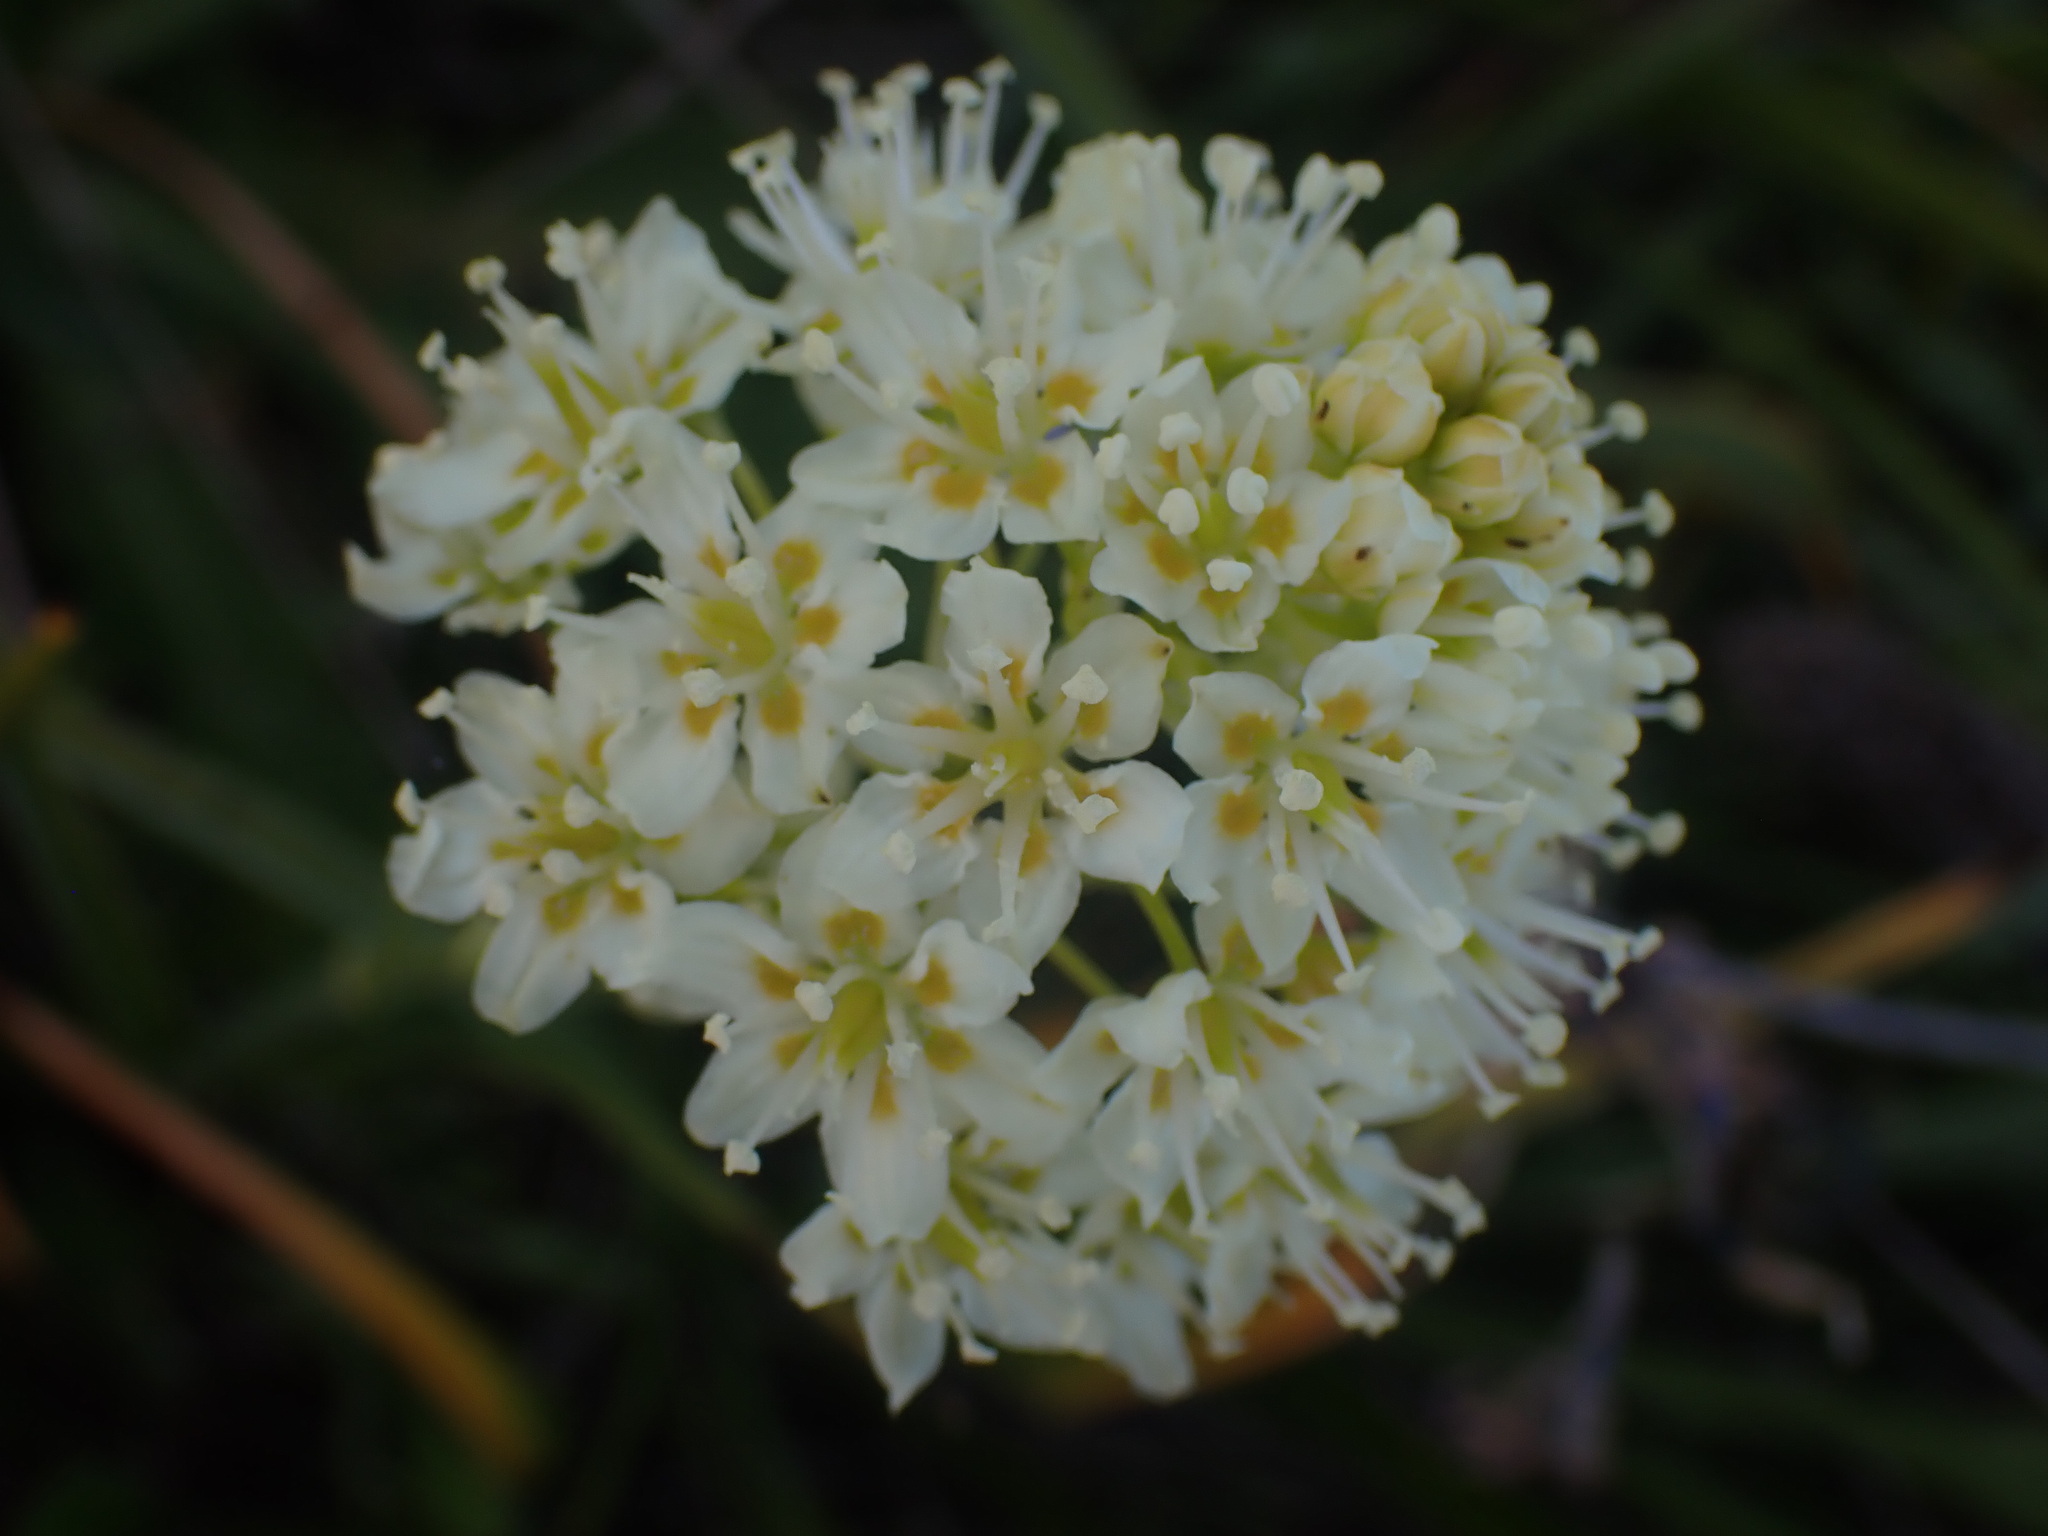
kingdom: Plantae
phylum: Tracheophyta
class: Liliopsida
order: Liliales
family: Melanthiaceae
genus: Toxicoscordion
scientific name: Toxicoscordion venenosum
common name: Meadow death camas
